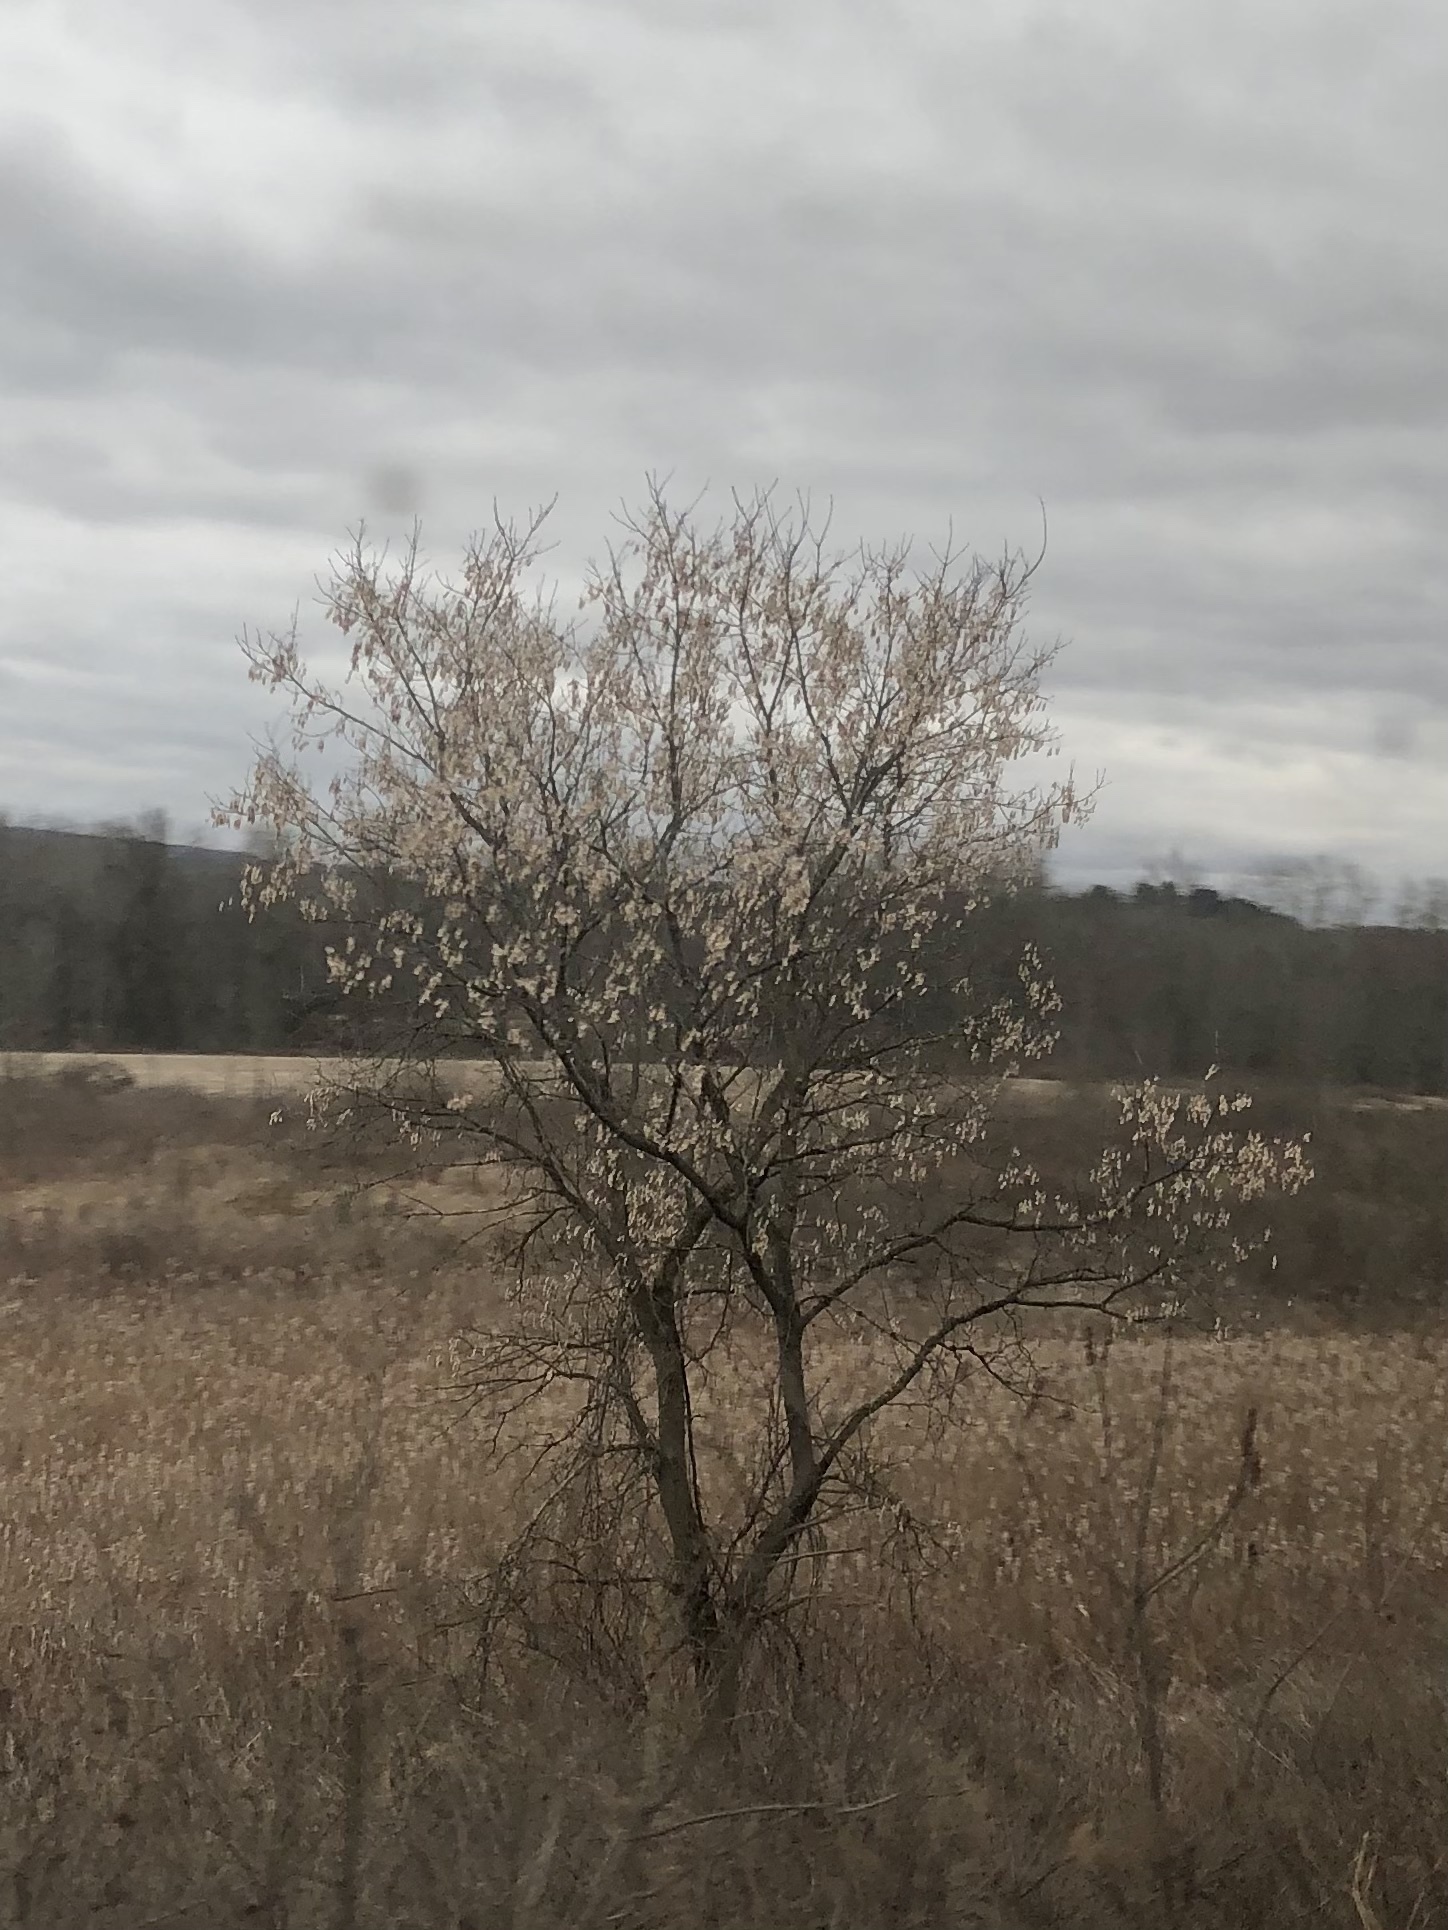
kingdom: Plantae
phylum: Tracheophyta
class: Magnoliopsida
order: Sapindales
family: Sapindaceae
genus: Acer
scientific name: Acer negundo
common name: Ashleaf maple
